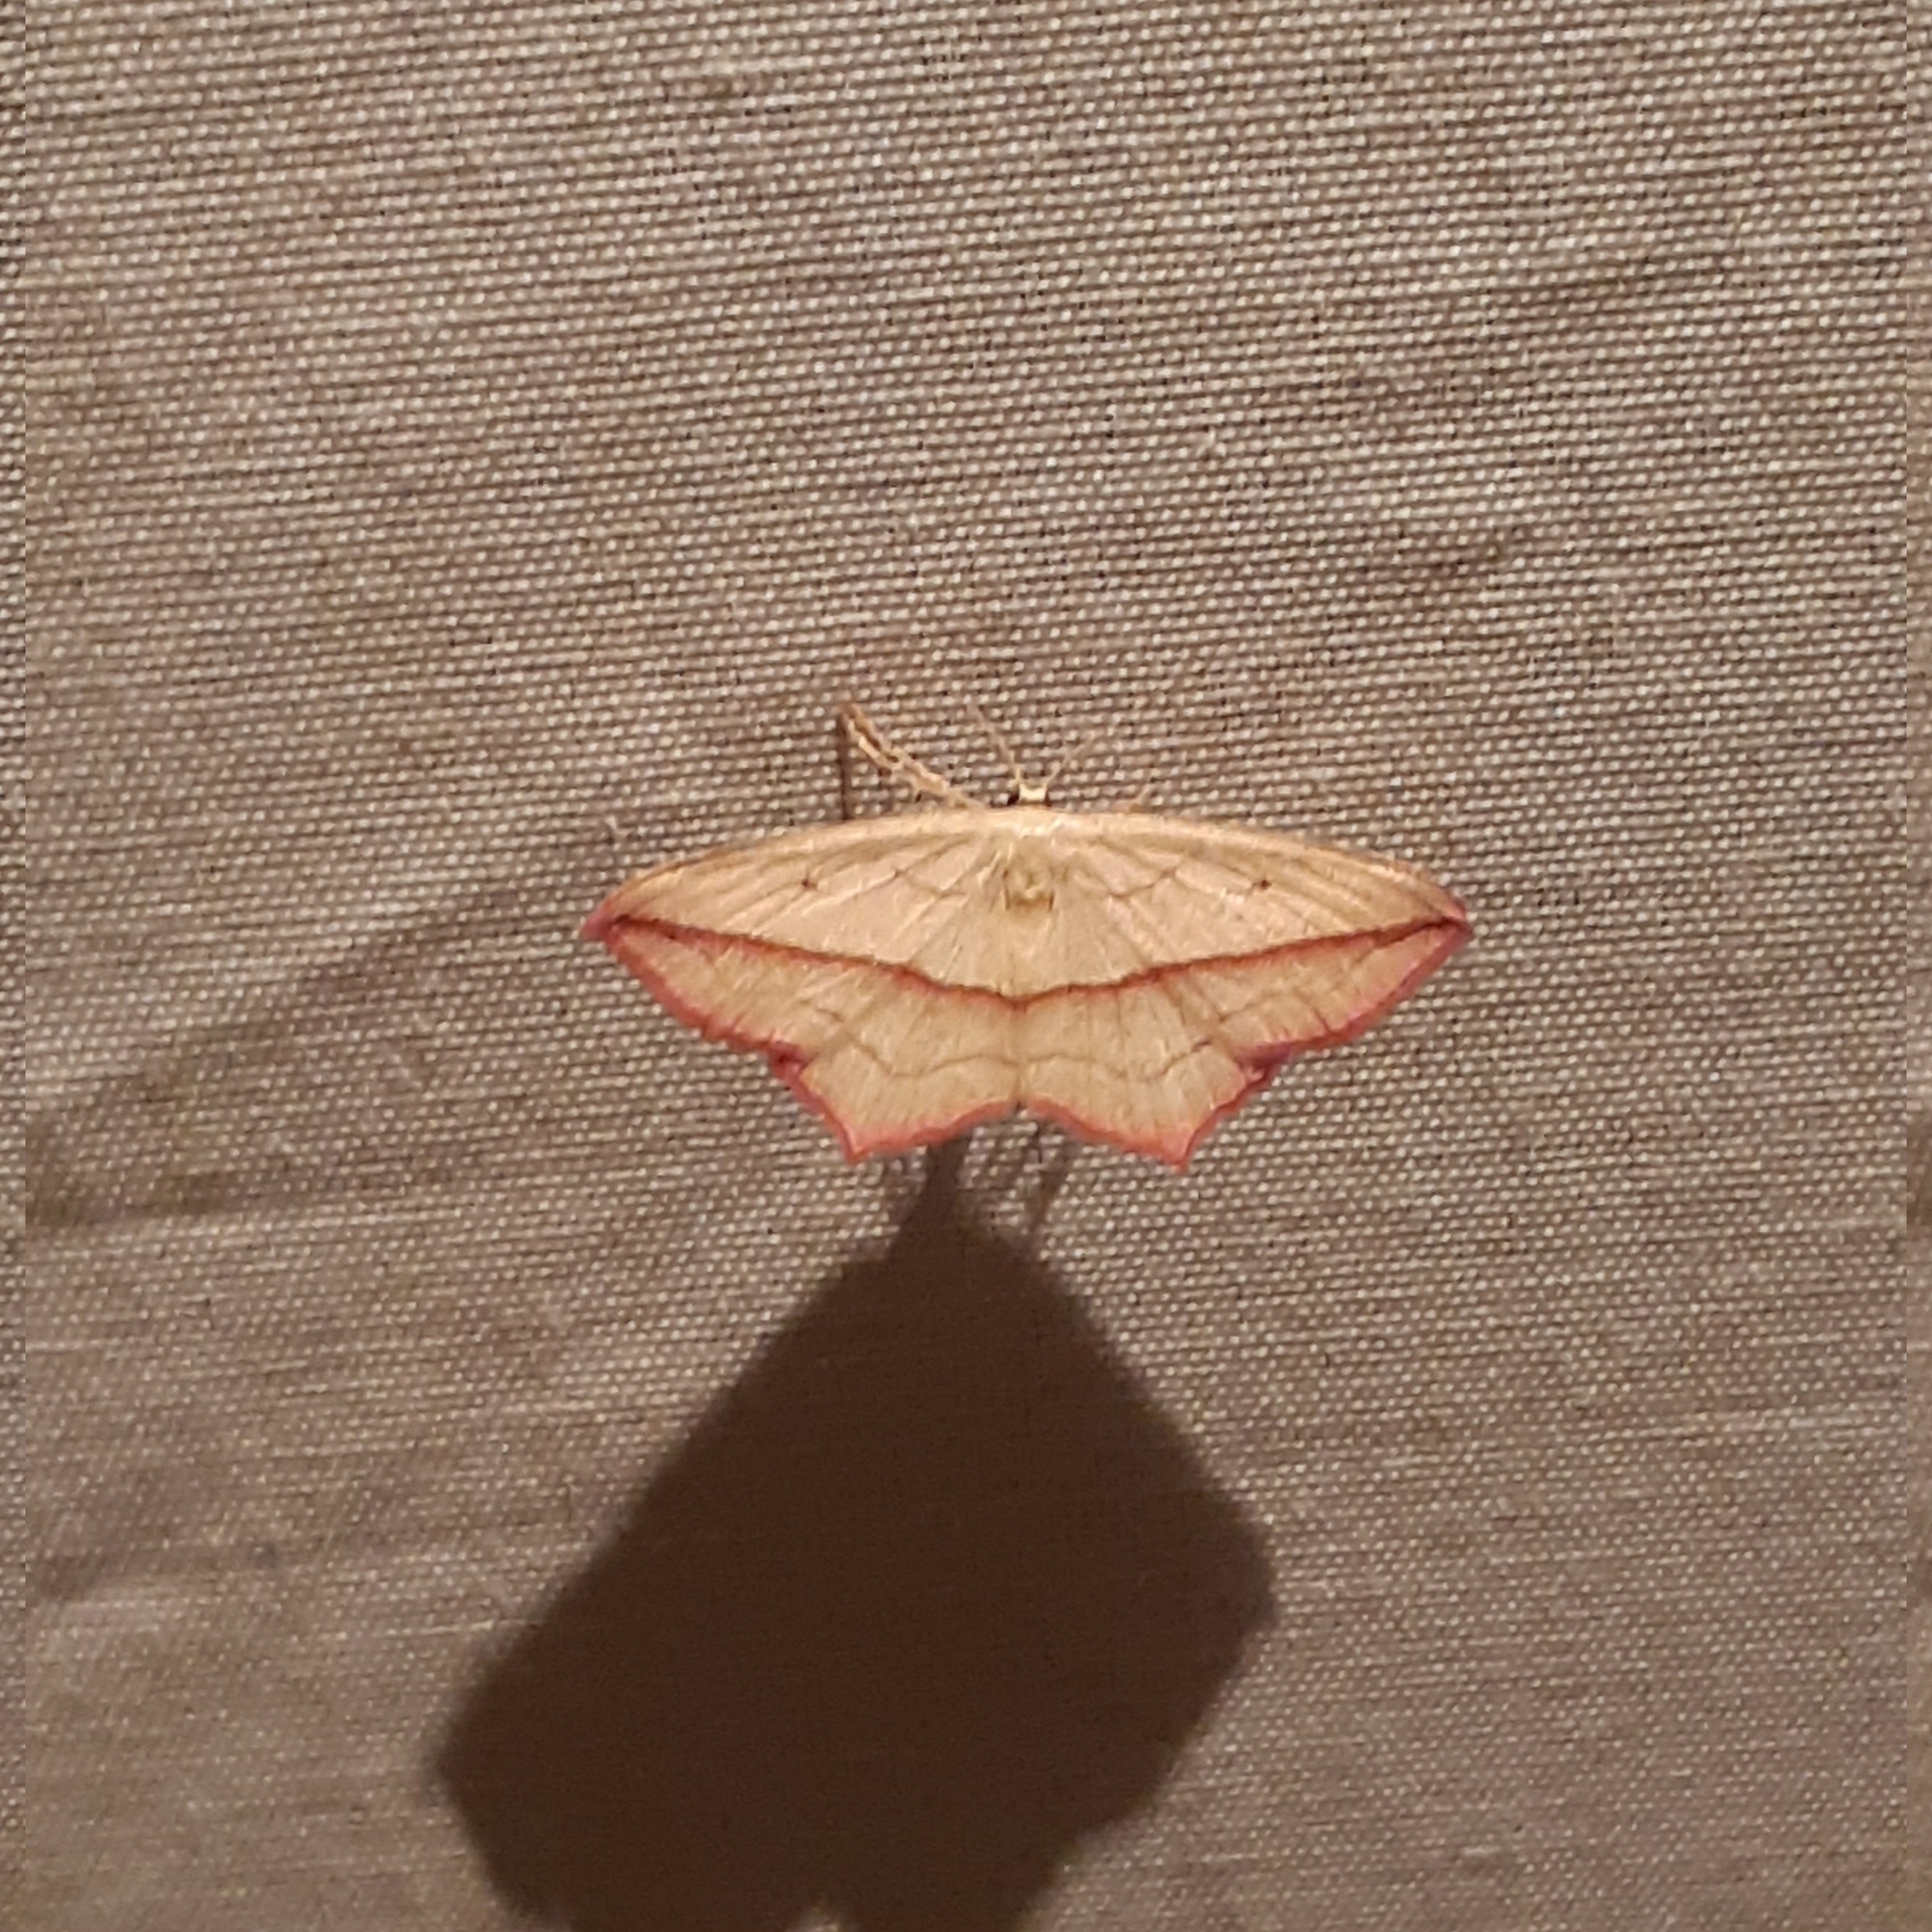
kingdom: Animalia
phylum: Arthropoda
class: Insecta
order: Lepidoptera
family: Geometridae
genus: Timandra
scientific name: Timandra comae
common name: Blood-vein
